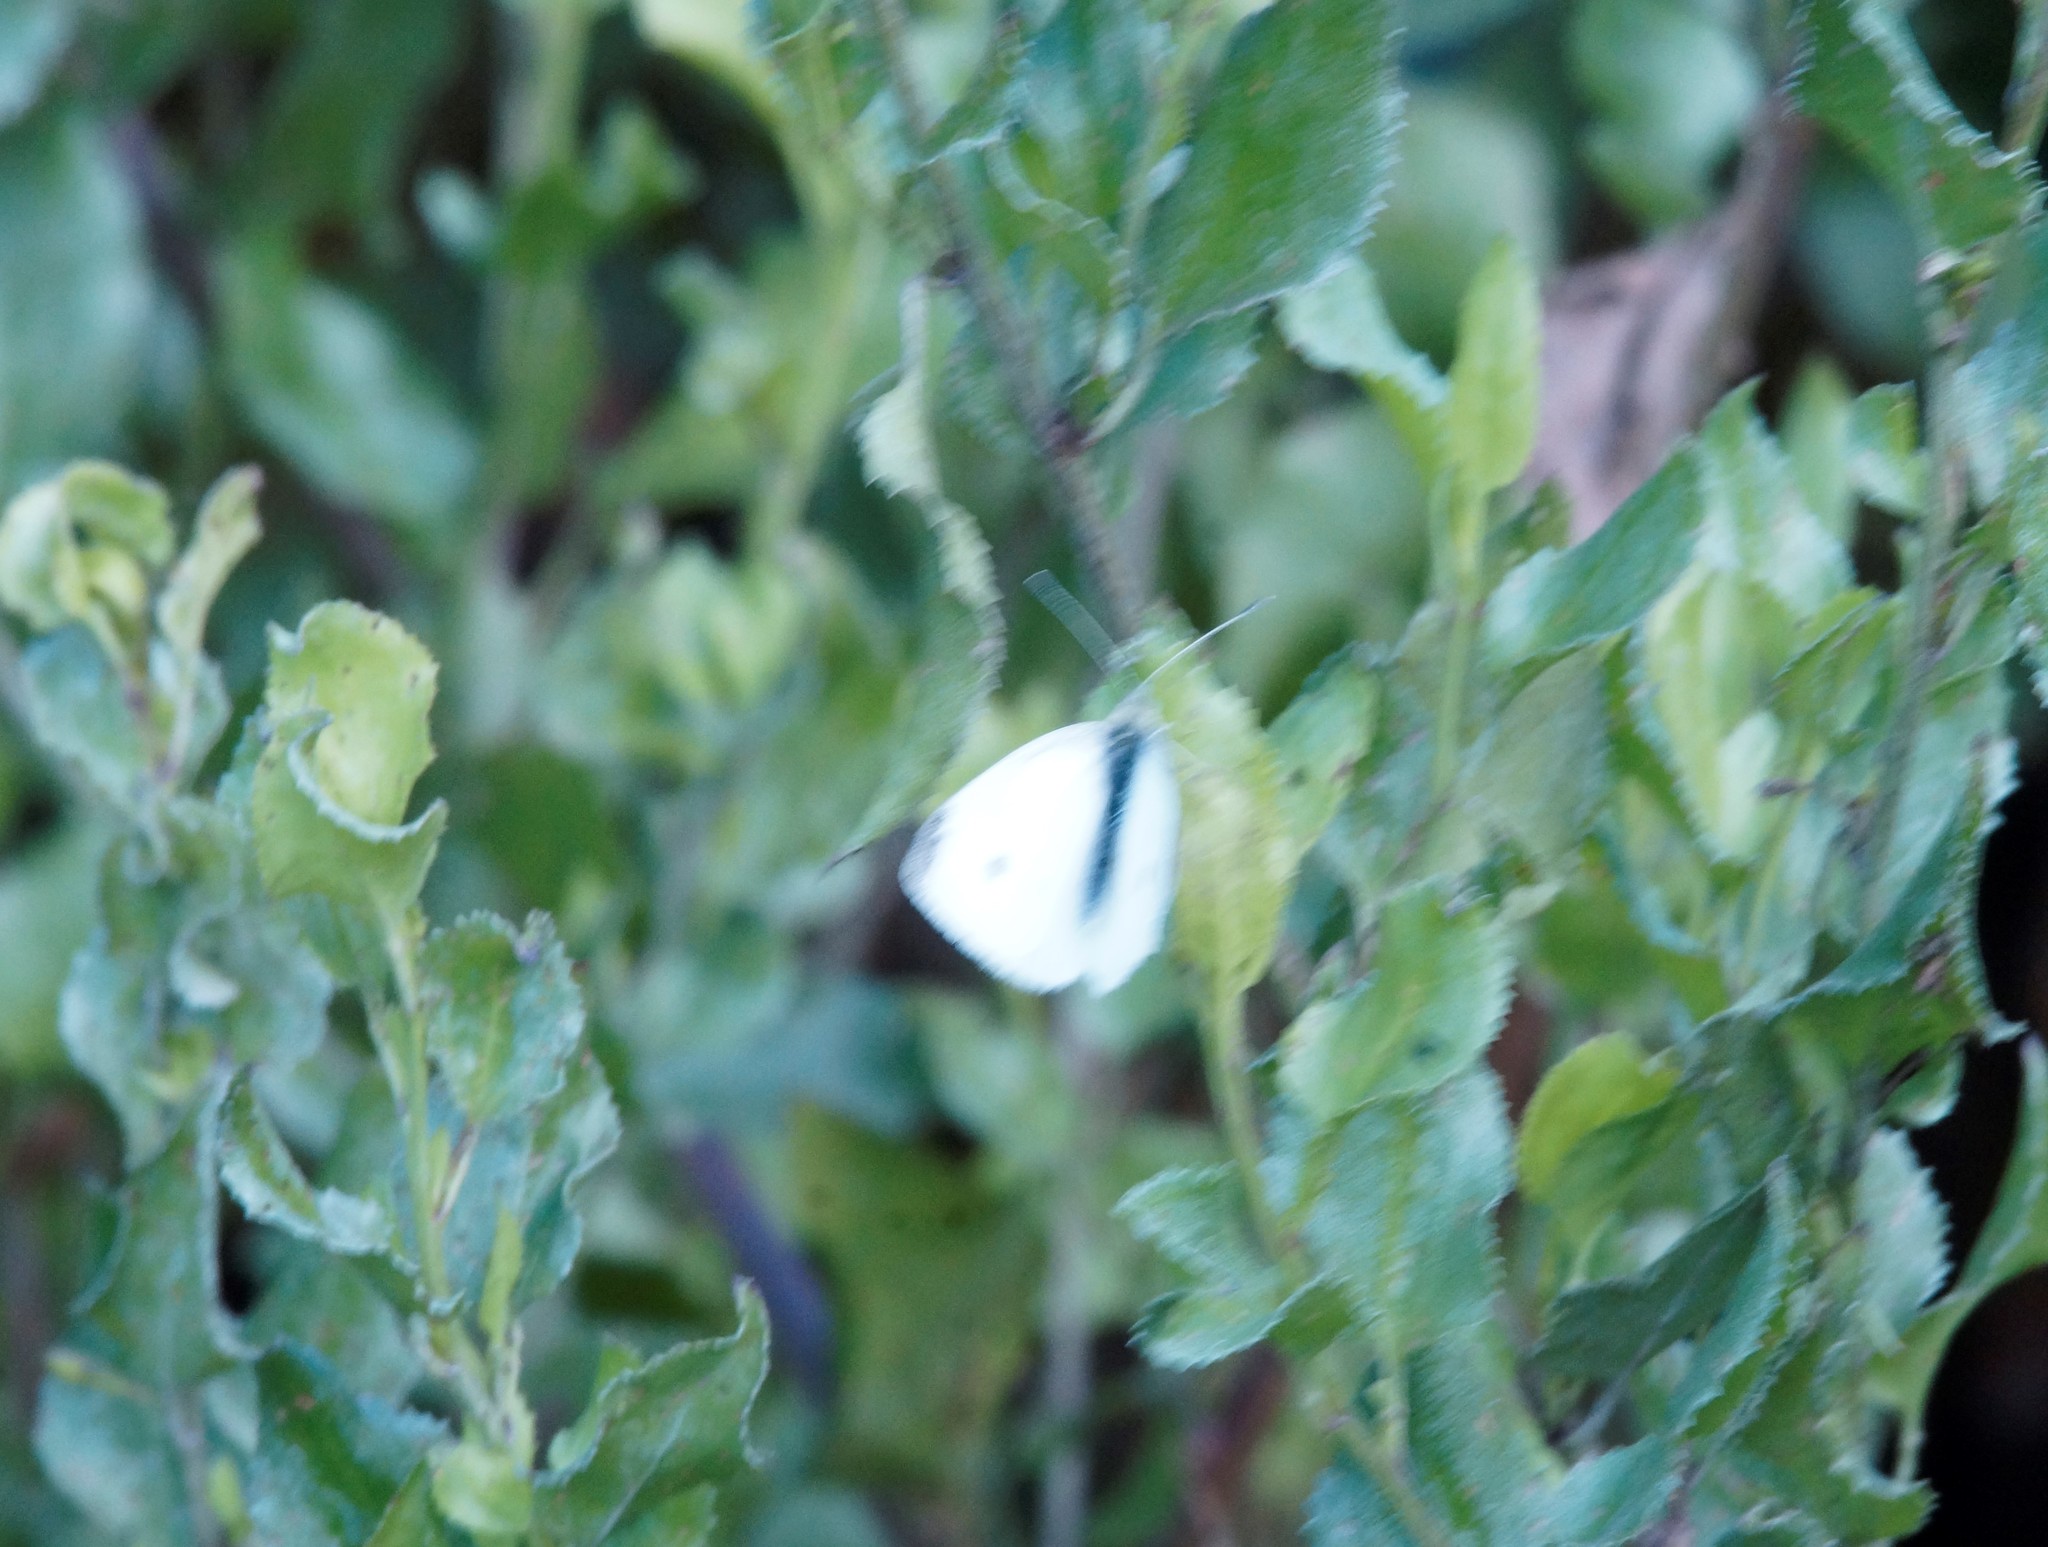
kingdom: Animalia
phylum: Arthropoda
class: Insecta
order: Lepidoptera
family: Pieridae
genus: Pieris
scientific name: Pieris rapae
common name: Small white
